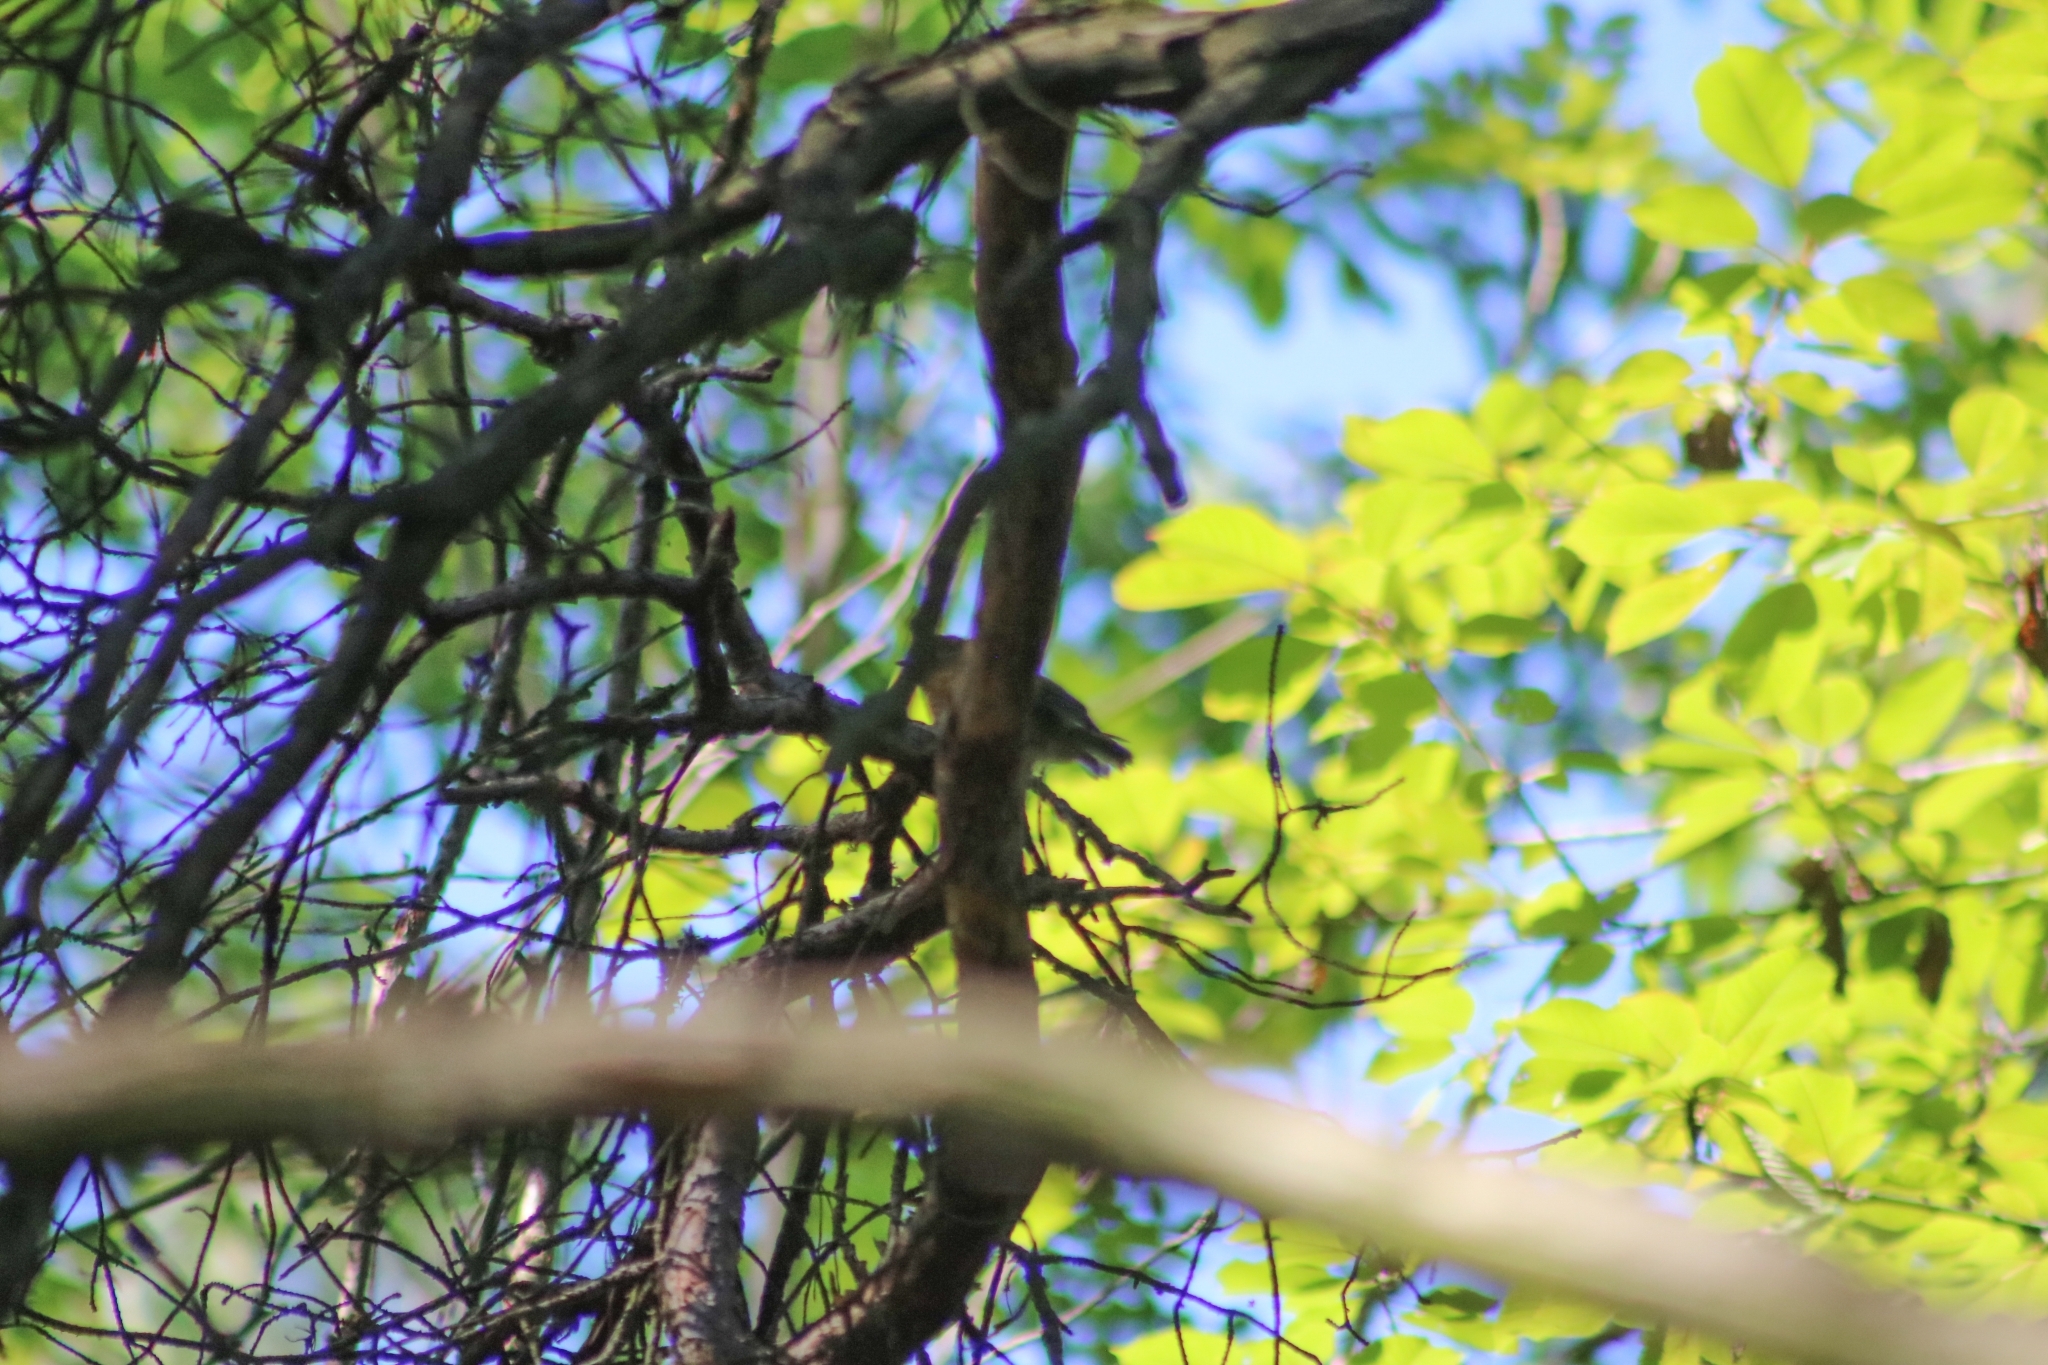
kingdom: Animalia
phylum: Chordata
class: Aves
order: Passeriformes
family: Muscicapidae
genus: Erithacus
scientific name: Erithacus rubecula
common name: European robin
